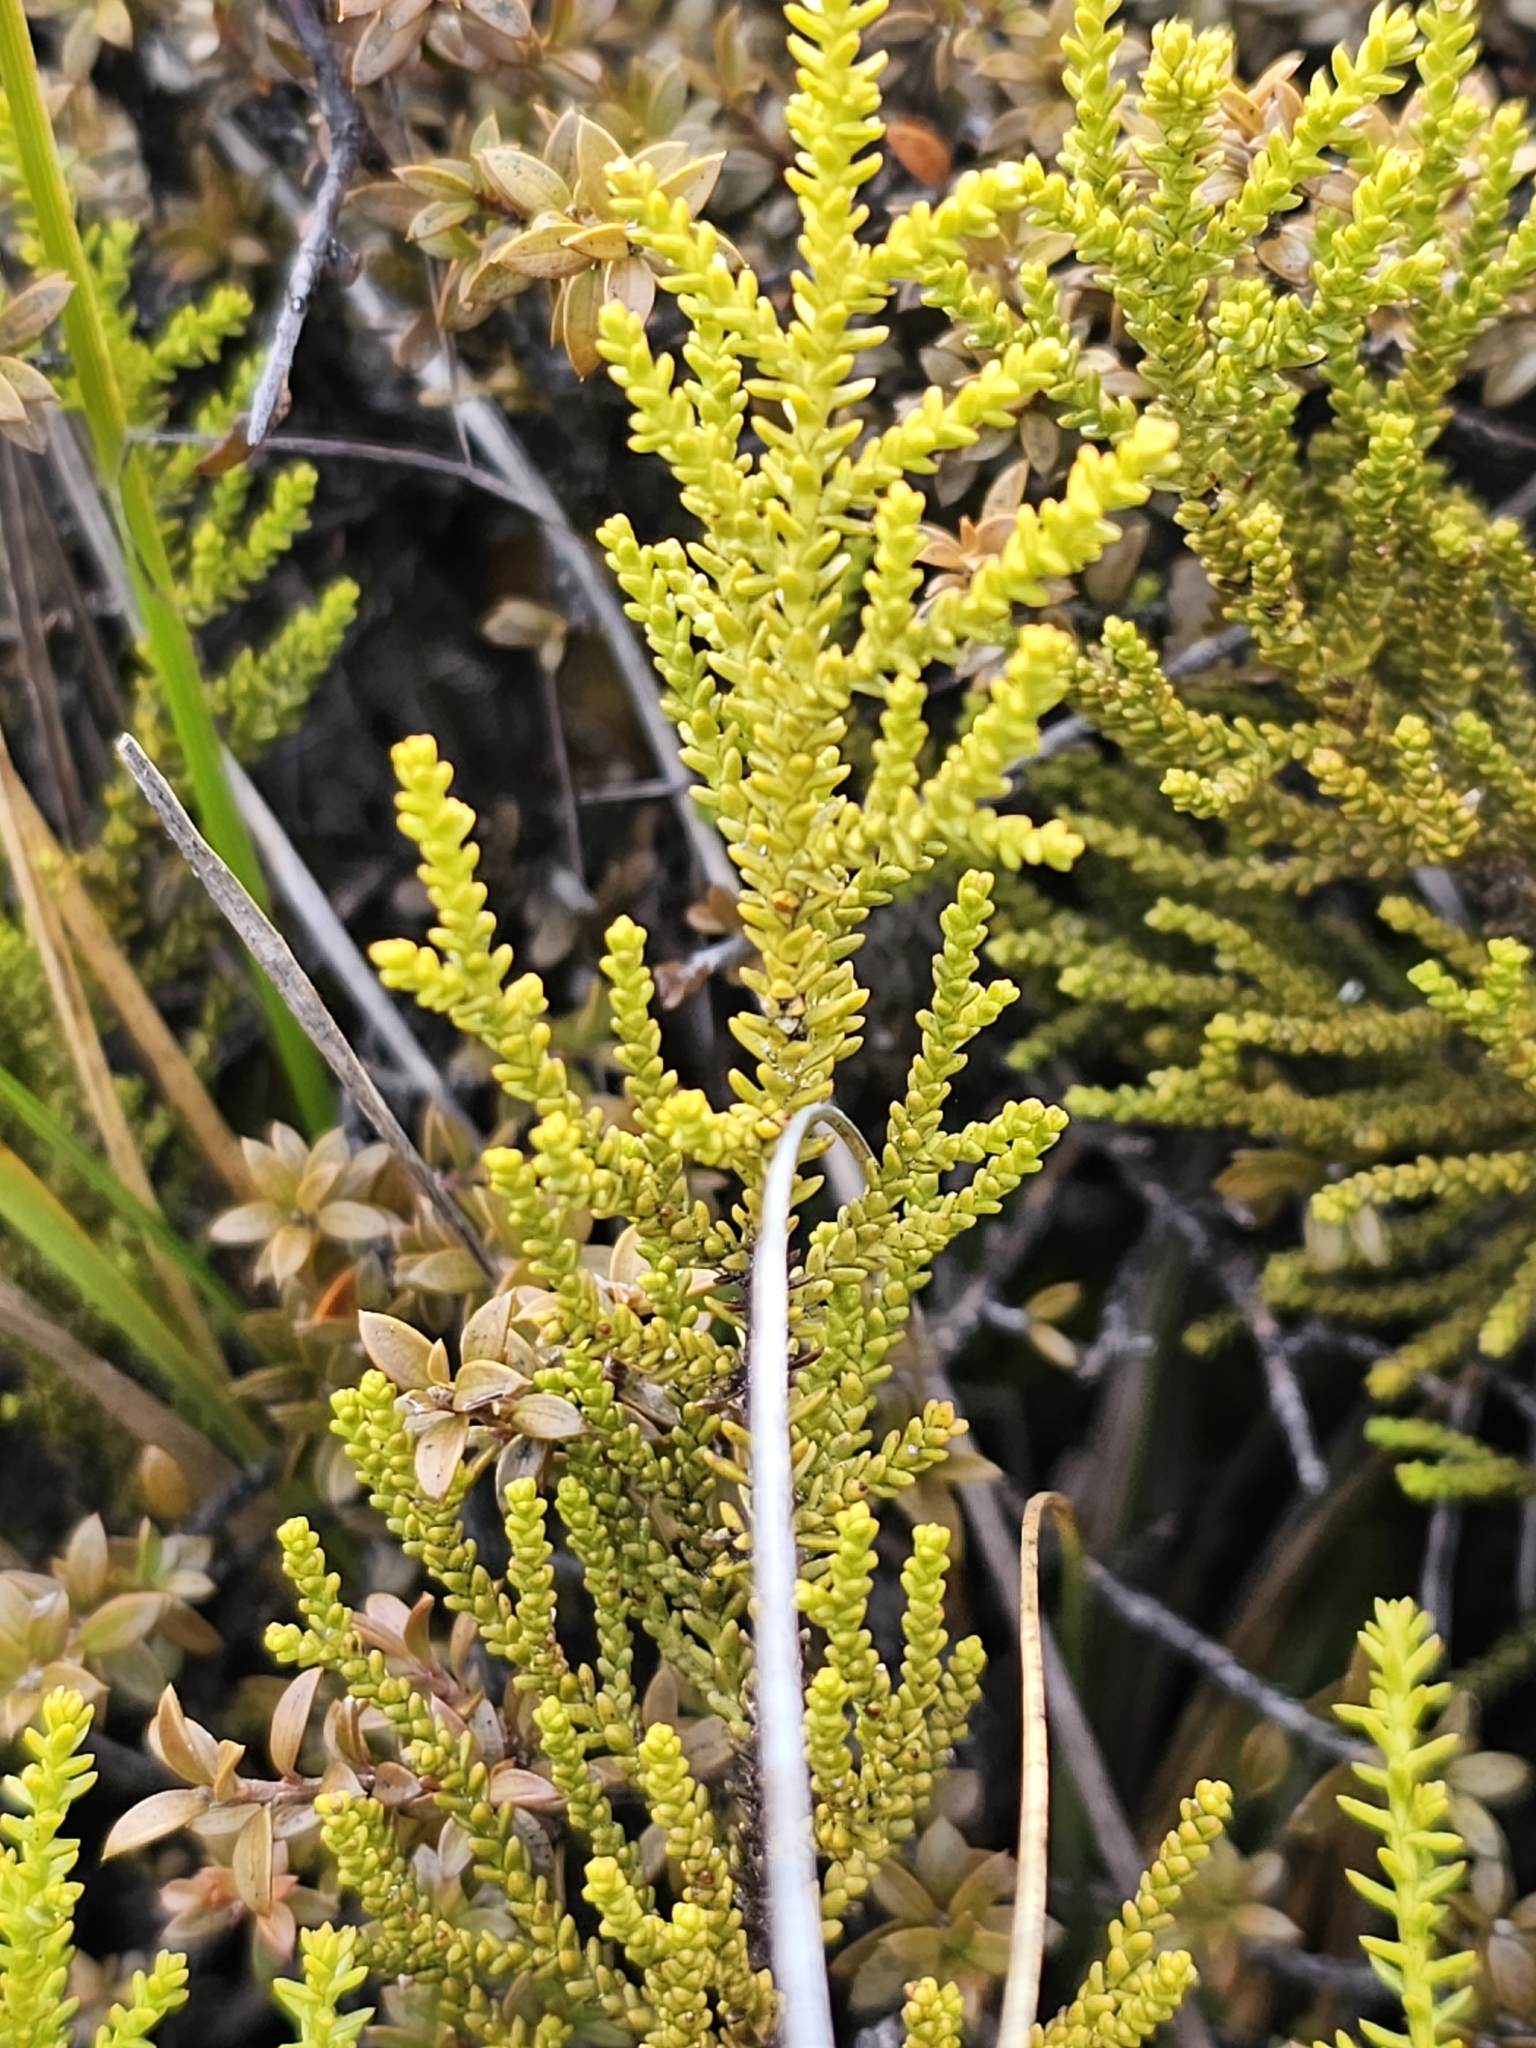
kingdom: Plantae
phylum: Tracheophyta
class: Pinopsida
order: Pinales
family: Podocarpaceae
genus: Lepidothamnus
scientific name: Lepidothamnus laxifolius
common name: Pygmy pine
